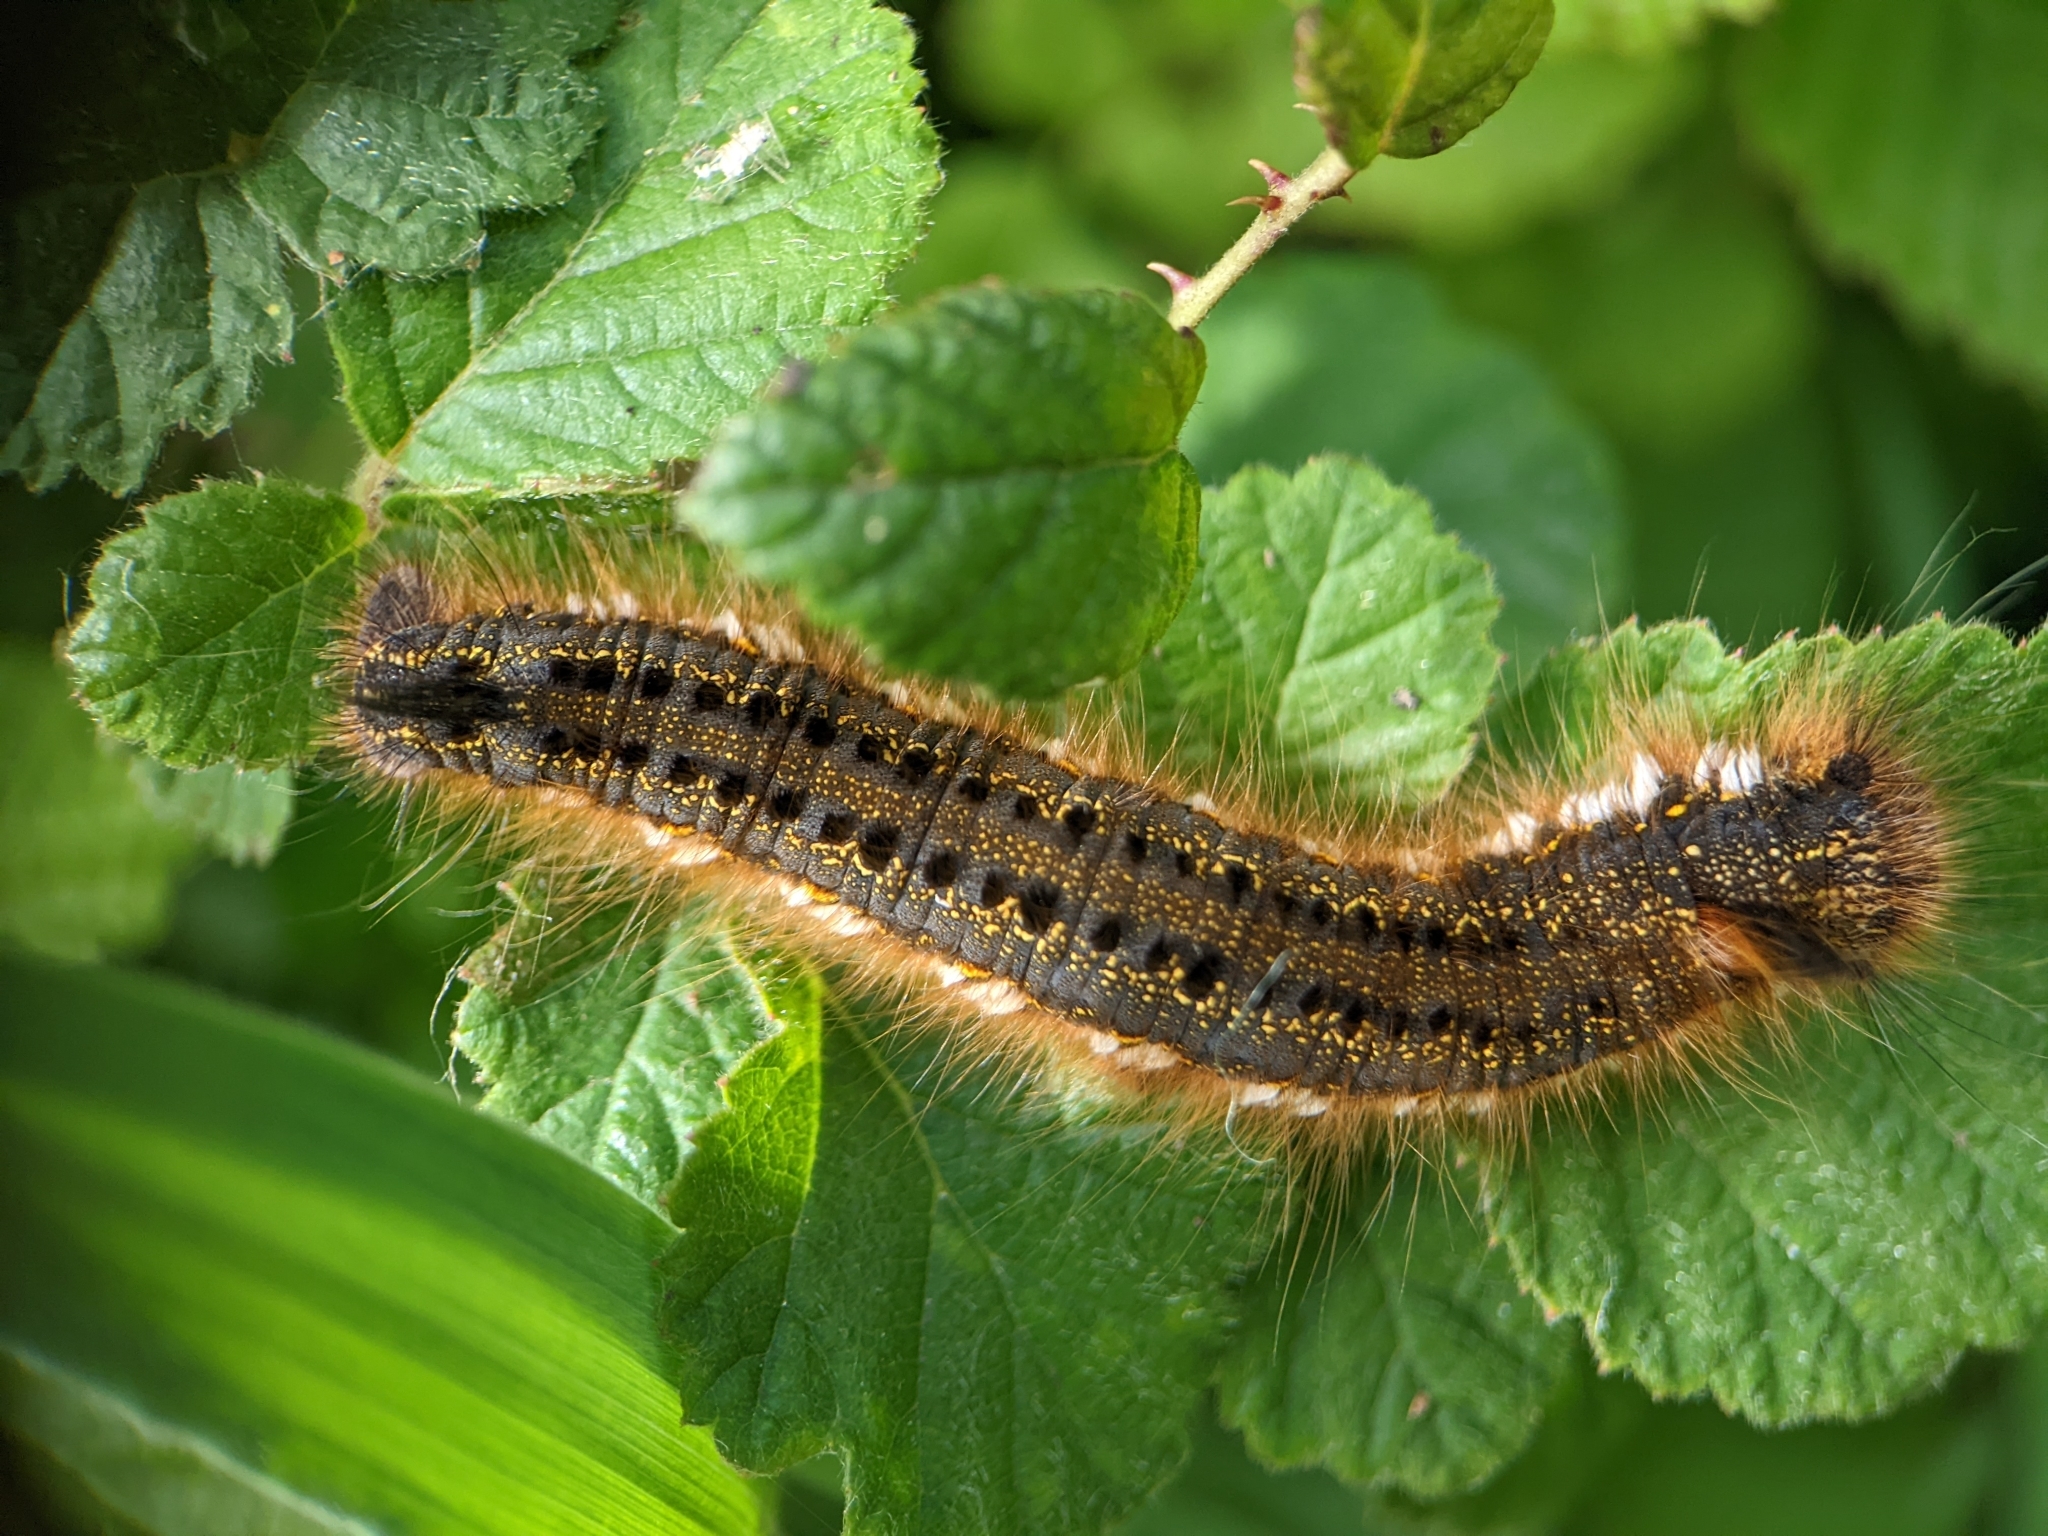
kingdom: Animalia
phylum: Arthropoda
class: Insecta
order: Lepidoptera
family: Lasiocampidae
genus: Euthrix
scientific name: Euthrix potatoria
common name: Drinker
